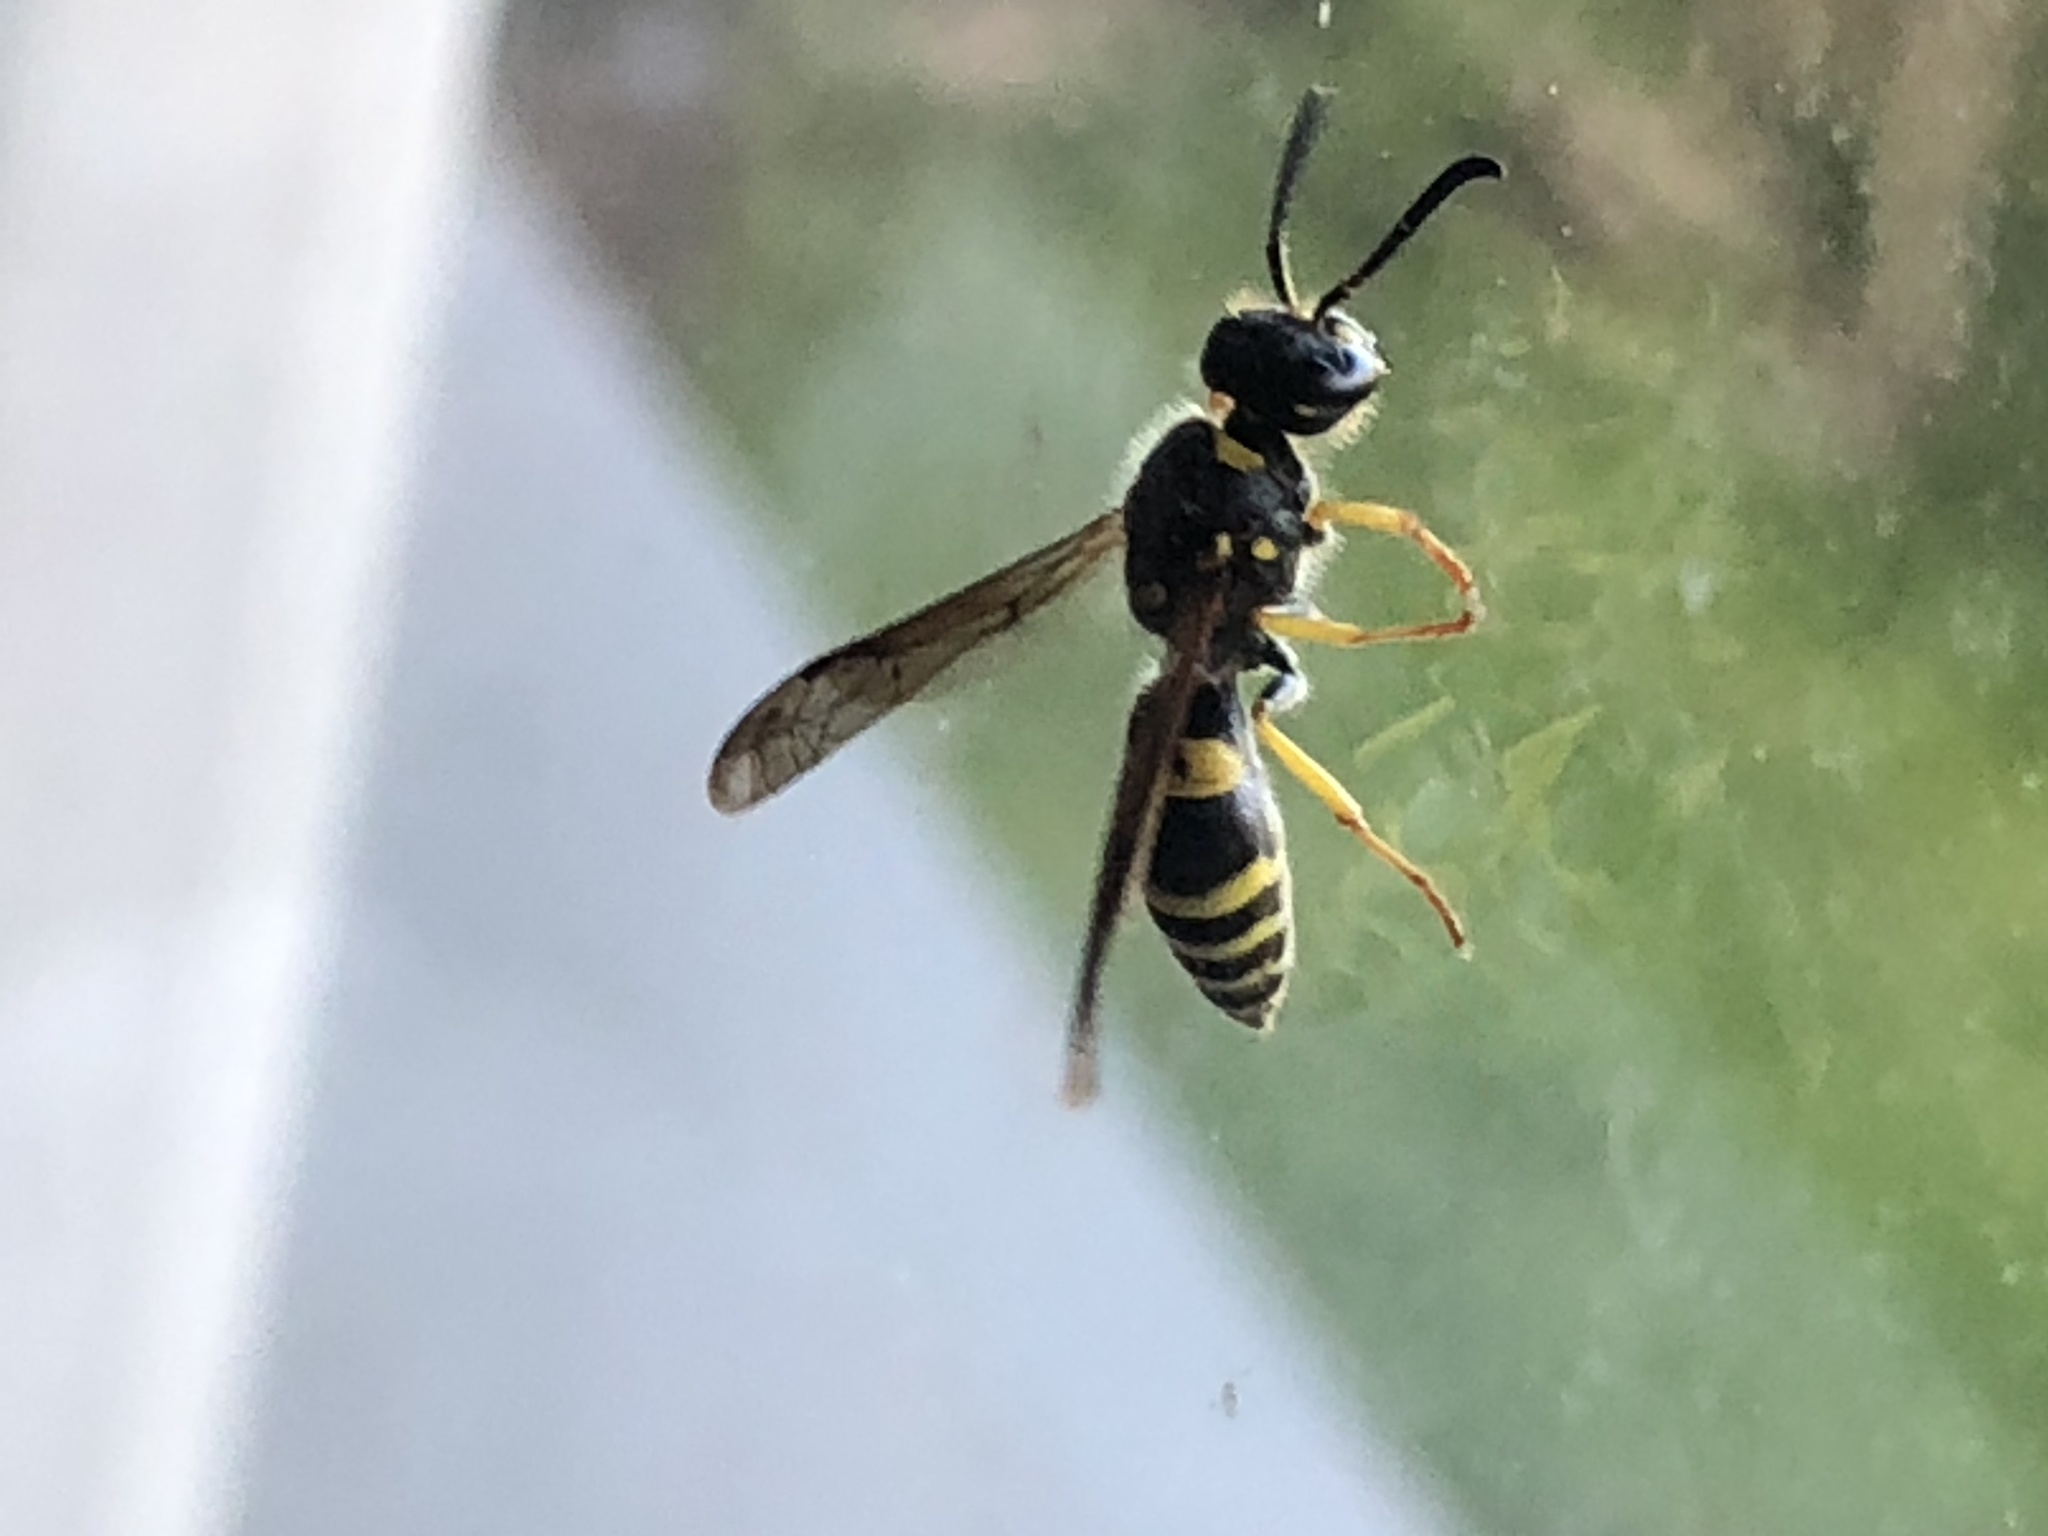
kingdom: Animalia
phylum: Arthropoda
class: Insecta
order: Hymenoptera
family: Vespidae
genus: Ancistrocerus
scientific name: Ancistrocerus
